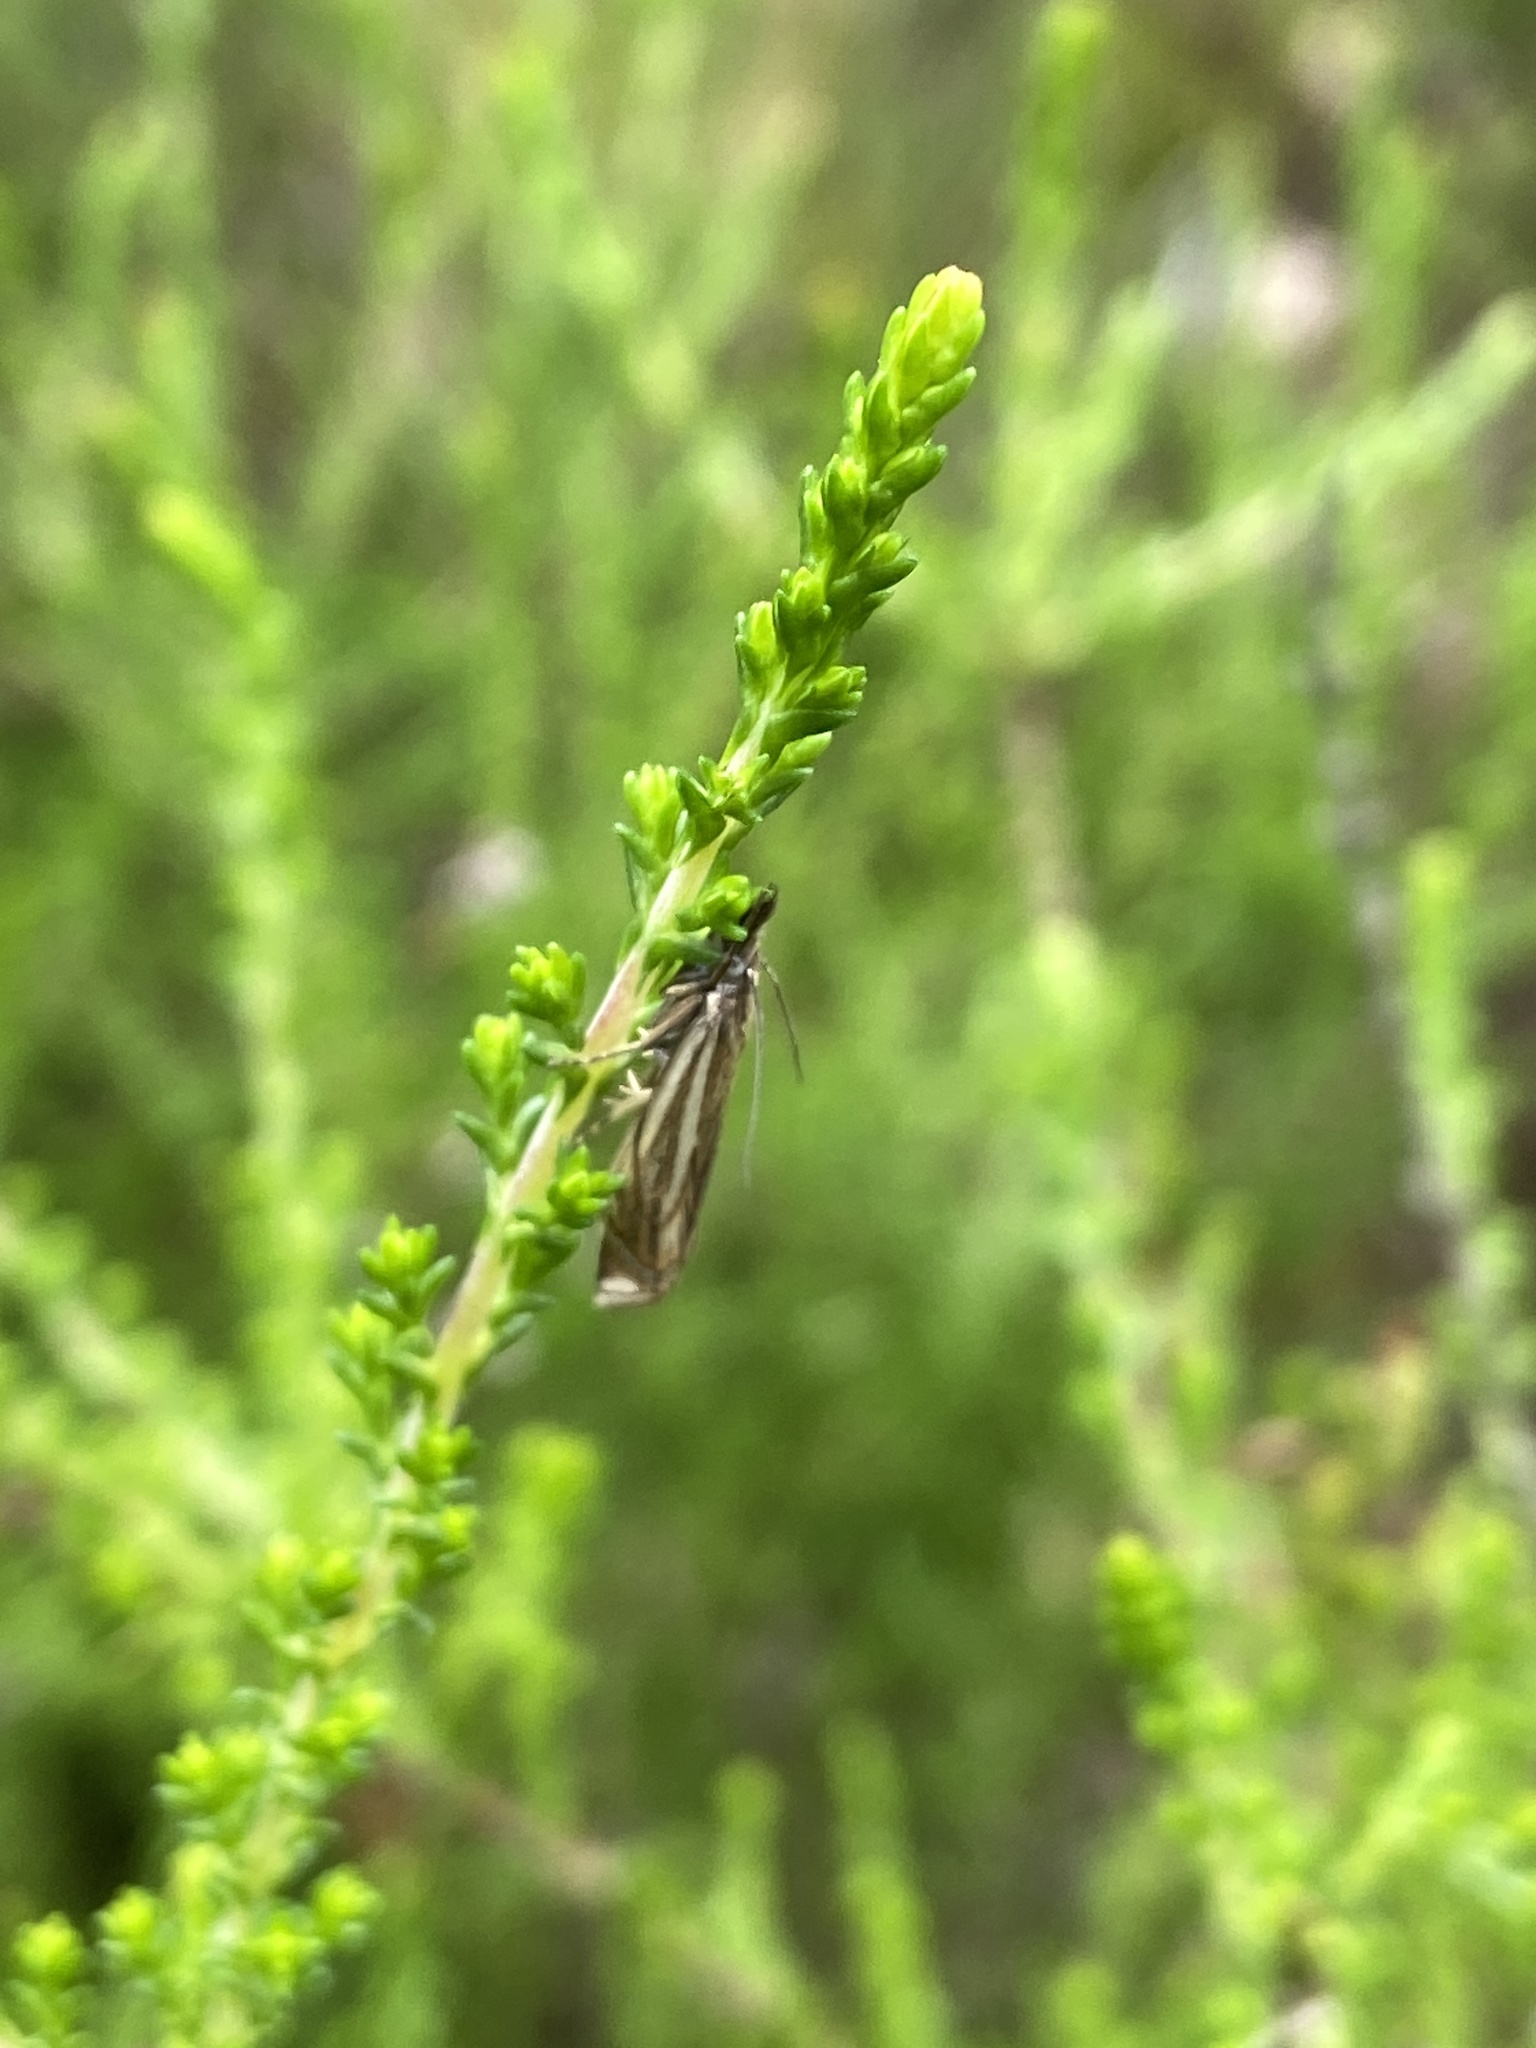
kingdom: Animalia
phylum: Arthropoda
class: Insecta
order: Lepidoptera
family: Crambidae
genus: Crambus
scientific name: Crambus nemorella
